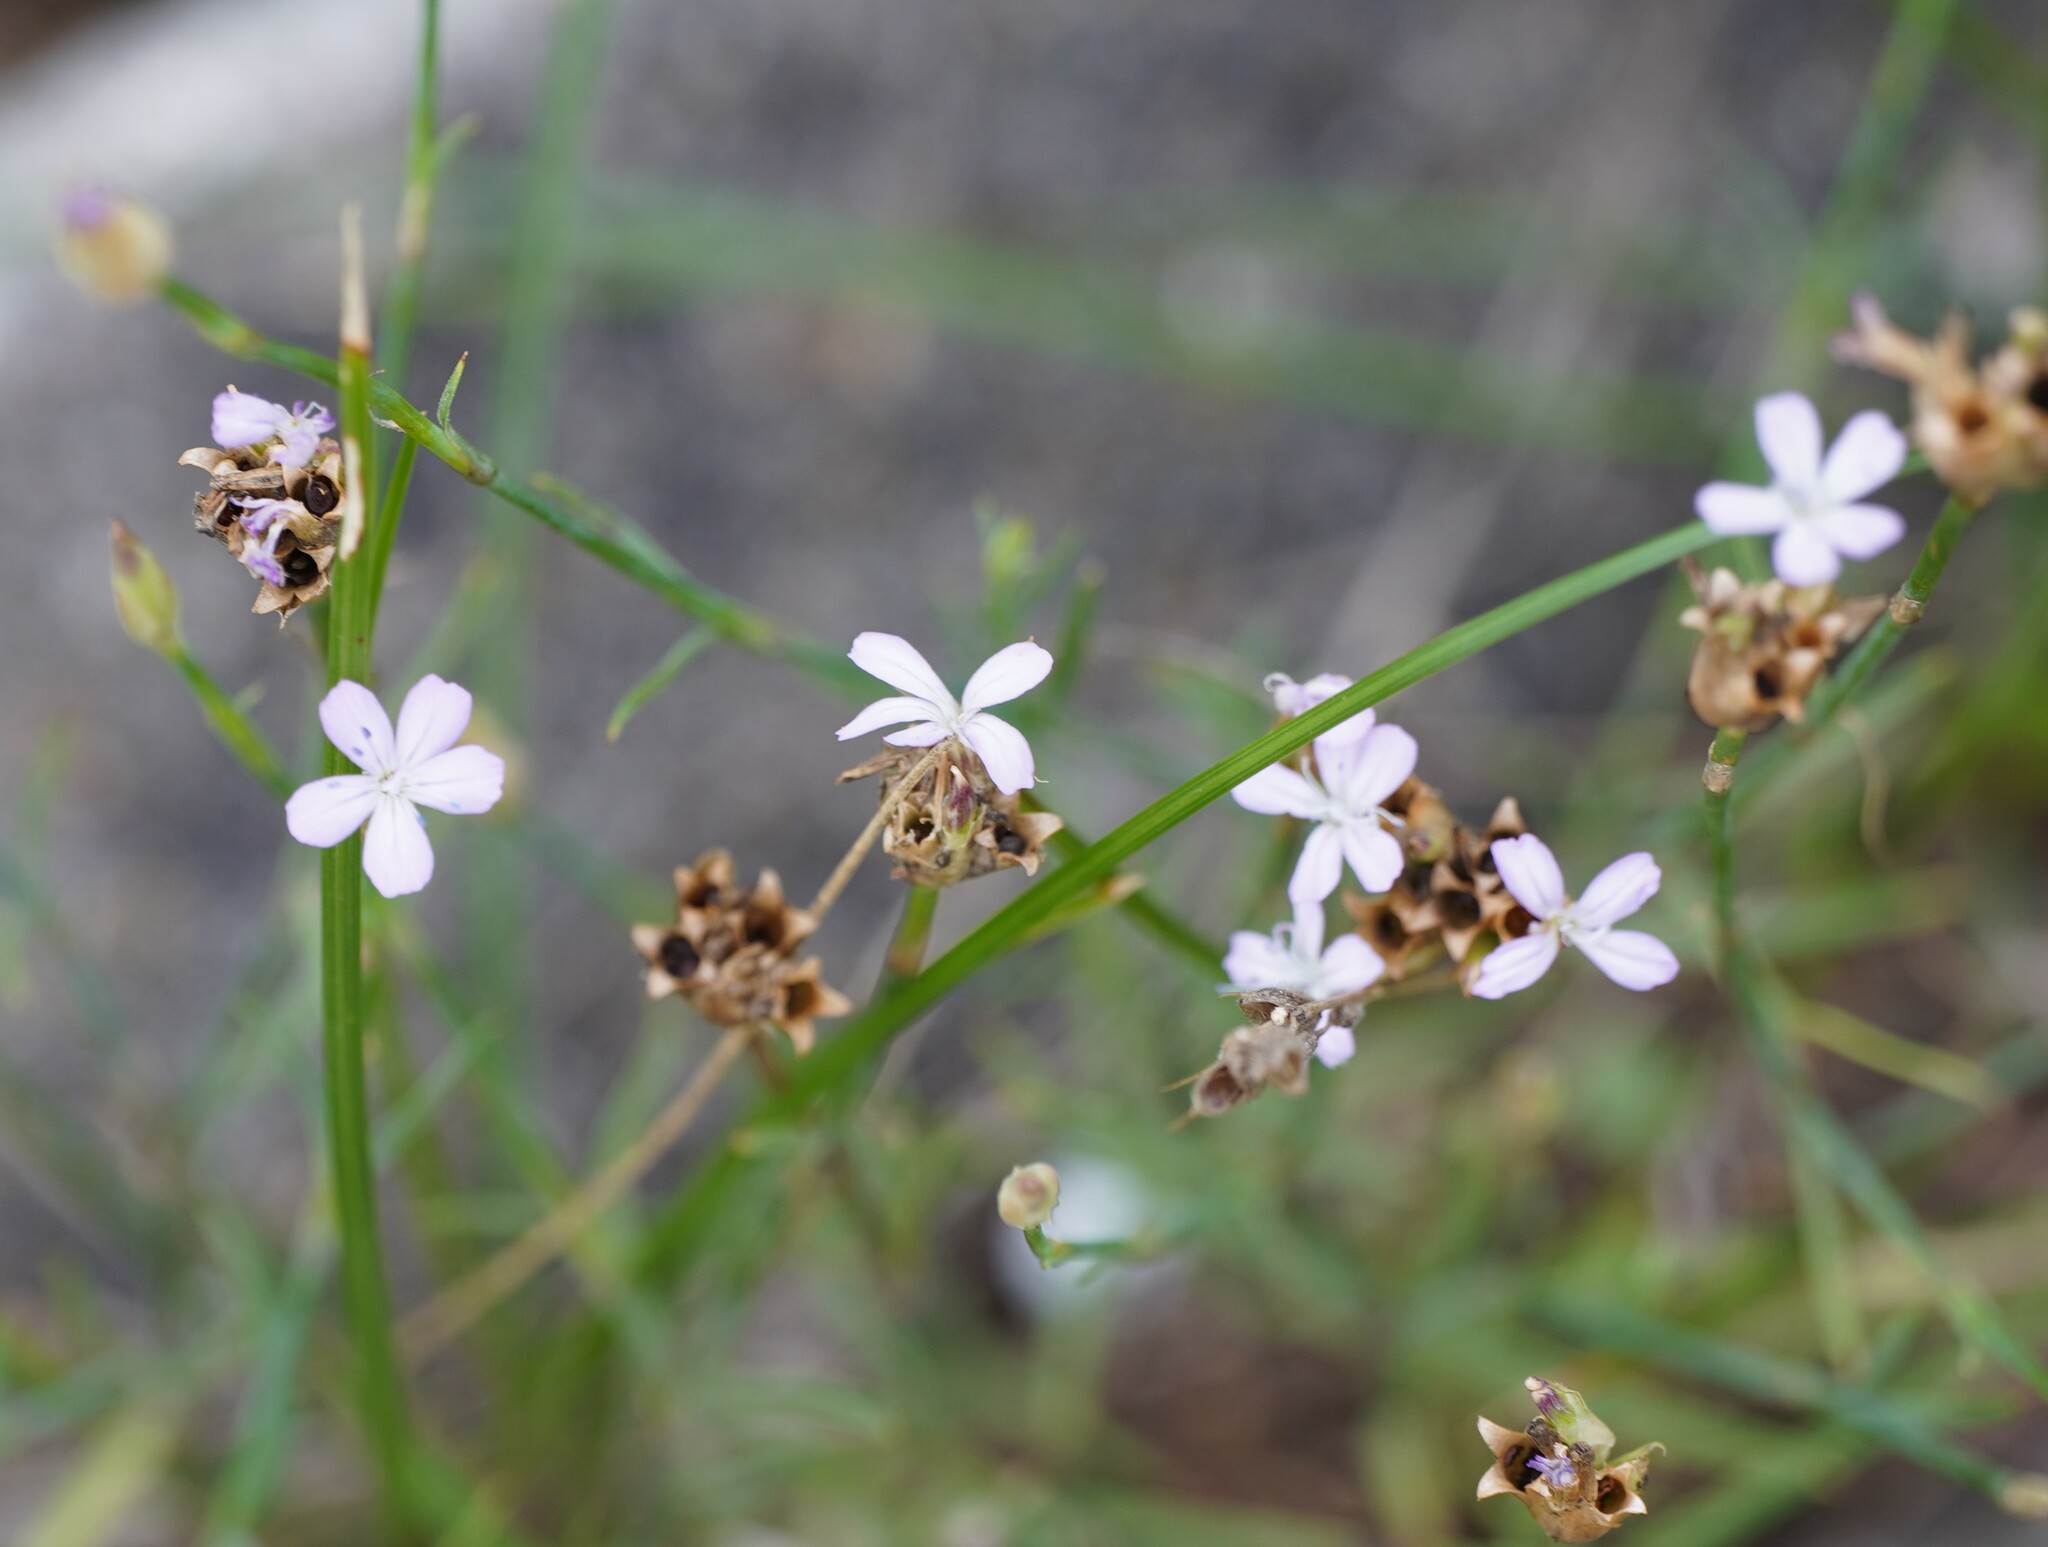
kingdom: Plantae
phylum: Tracheophyta
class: Magnoliopsida
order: Caryophyllales
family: Caryophyllaceae
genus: Petrorhagia
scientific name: Petrorhagia prolifera
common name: Proliferous pink
